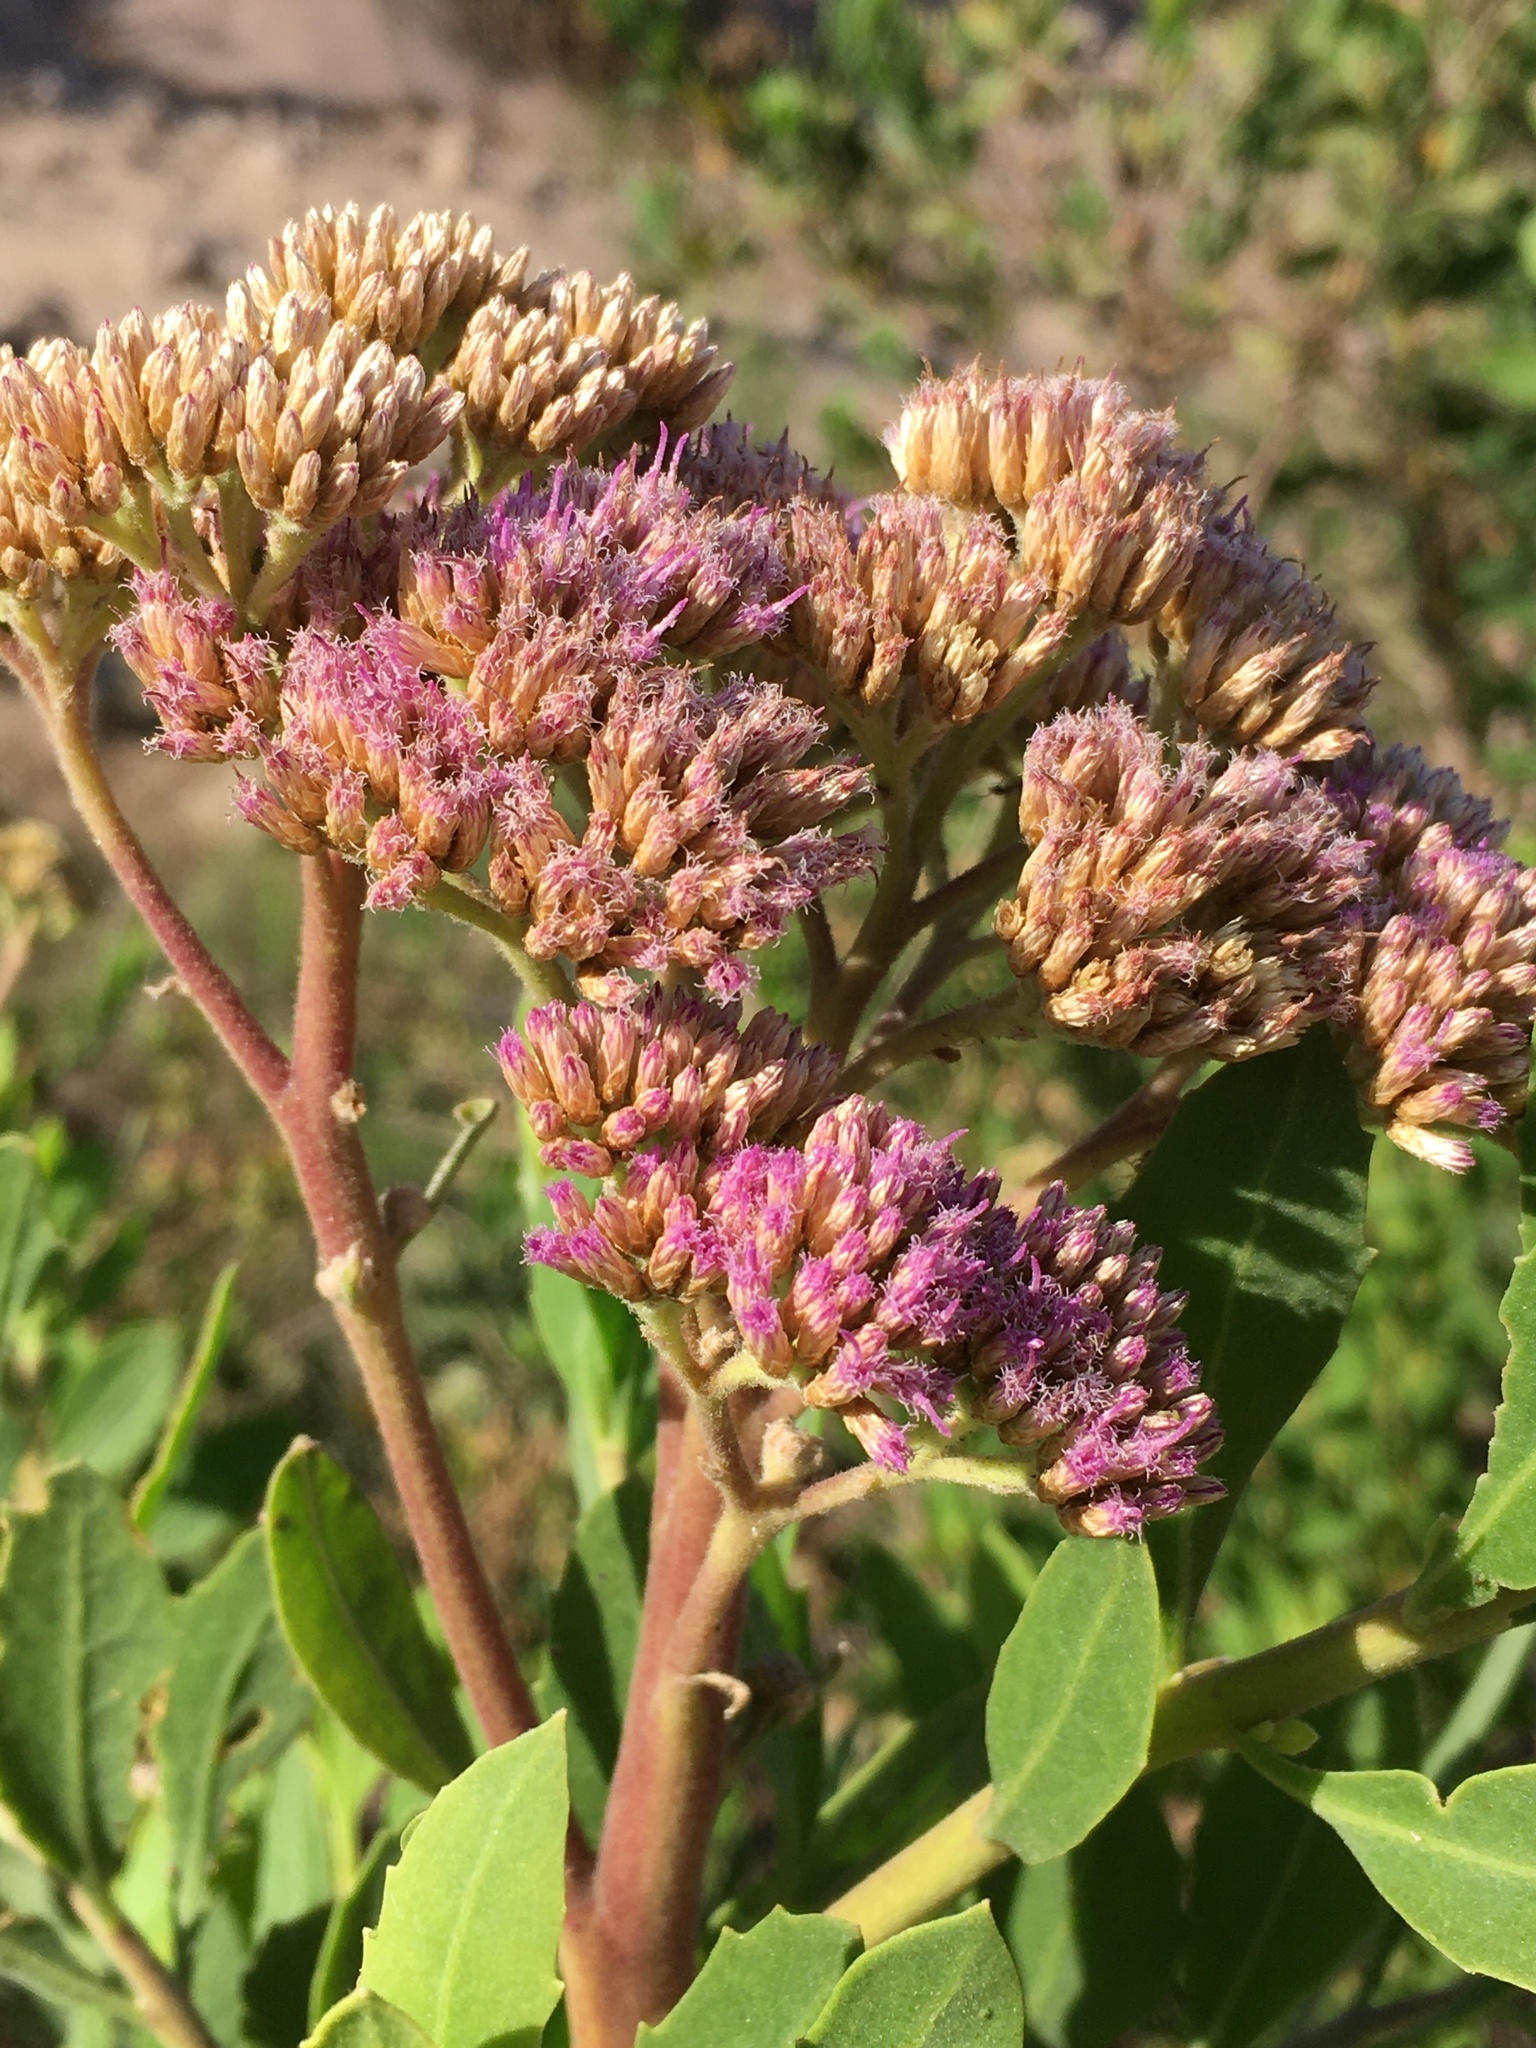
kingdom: Plantae
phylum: Tracheophyta
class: Magnoliopsida
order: Asterales
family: Asteraceae
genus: Tessaria
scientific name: Tessaria absinthioides
